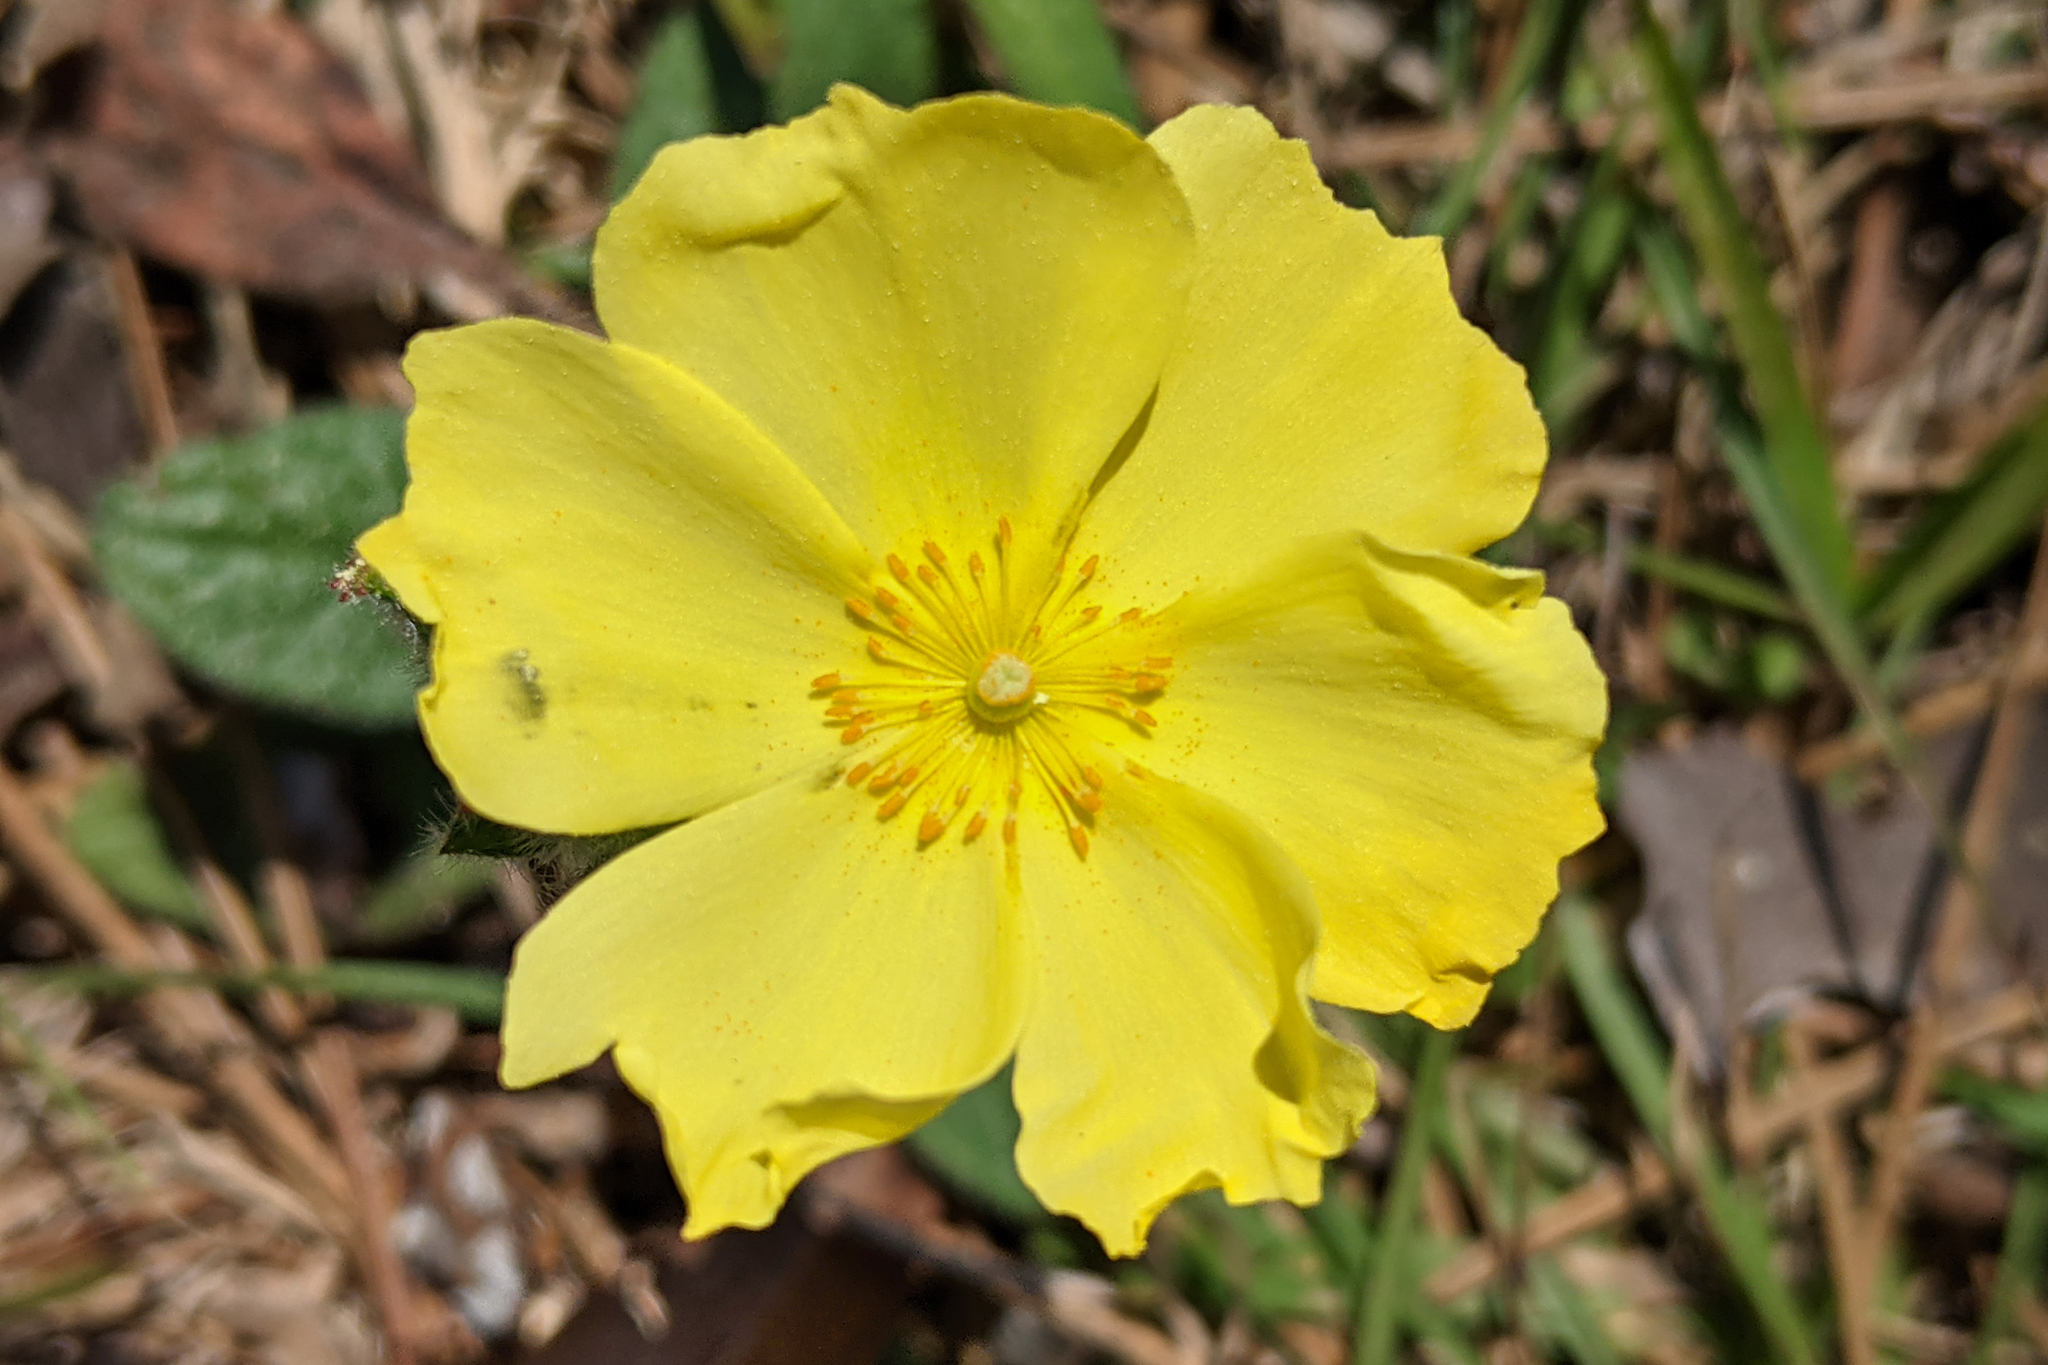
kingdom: Plantae
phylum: Tracheophyta
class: Magnoliopsida
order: Malvales
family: Cistaceae
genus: Crocanthemum
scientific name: Crocanthemum carolinianum
